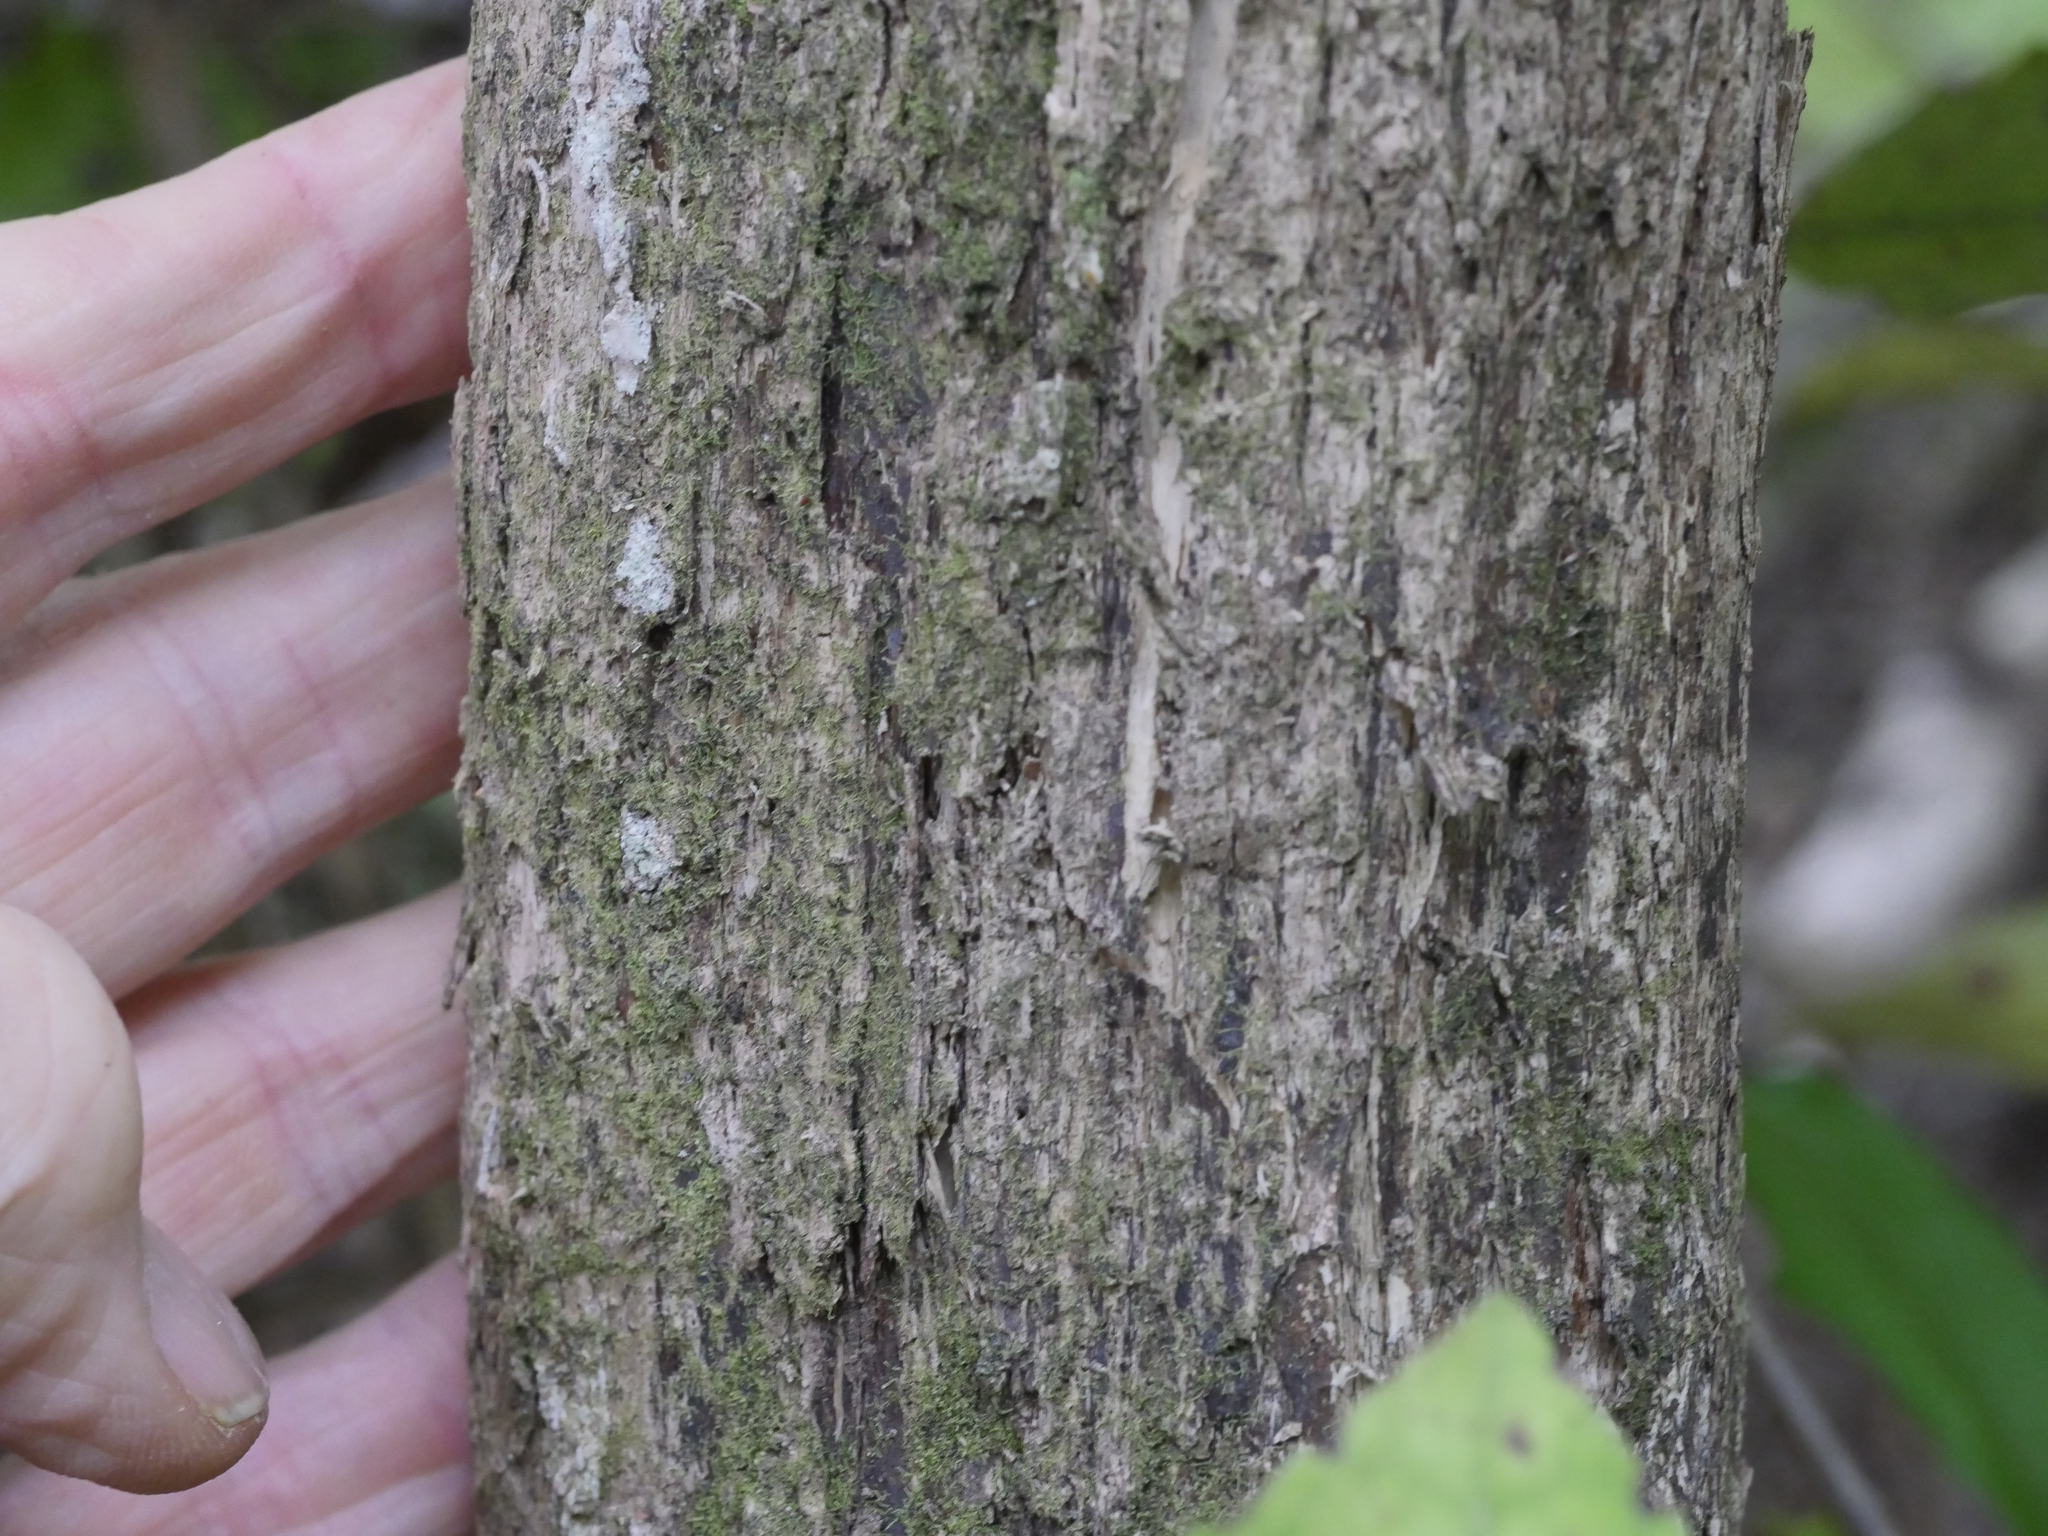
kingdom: Plantae
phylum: Tracheophyta
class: Magnoliopsida
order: Asterales
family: Asteraceae
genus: Olearia
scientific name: Olearia rani
